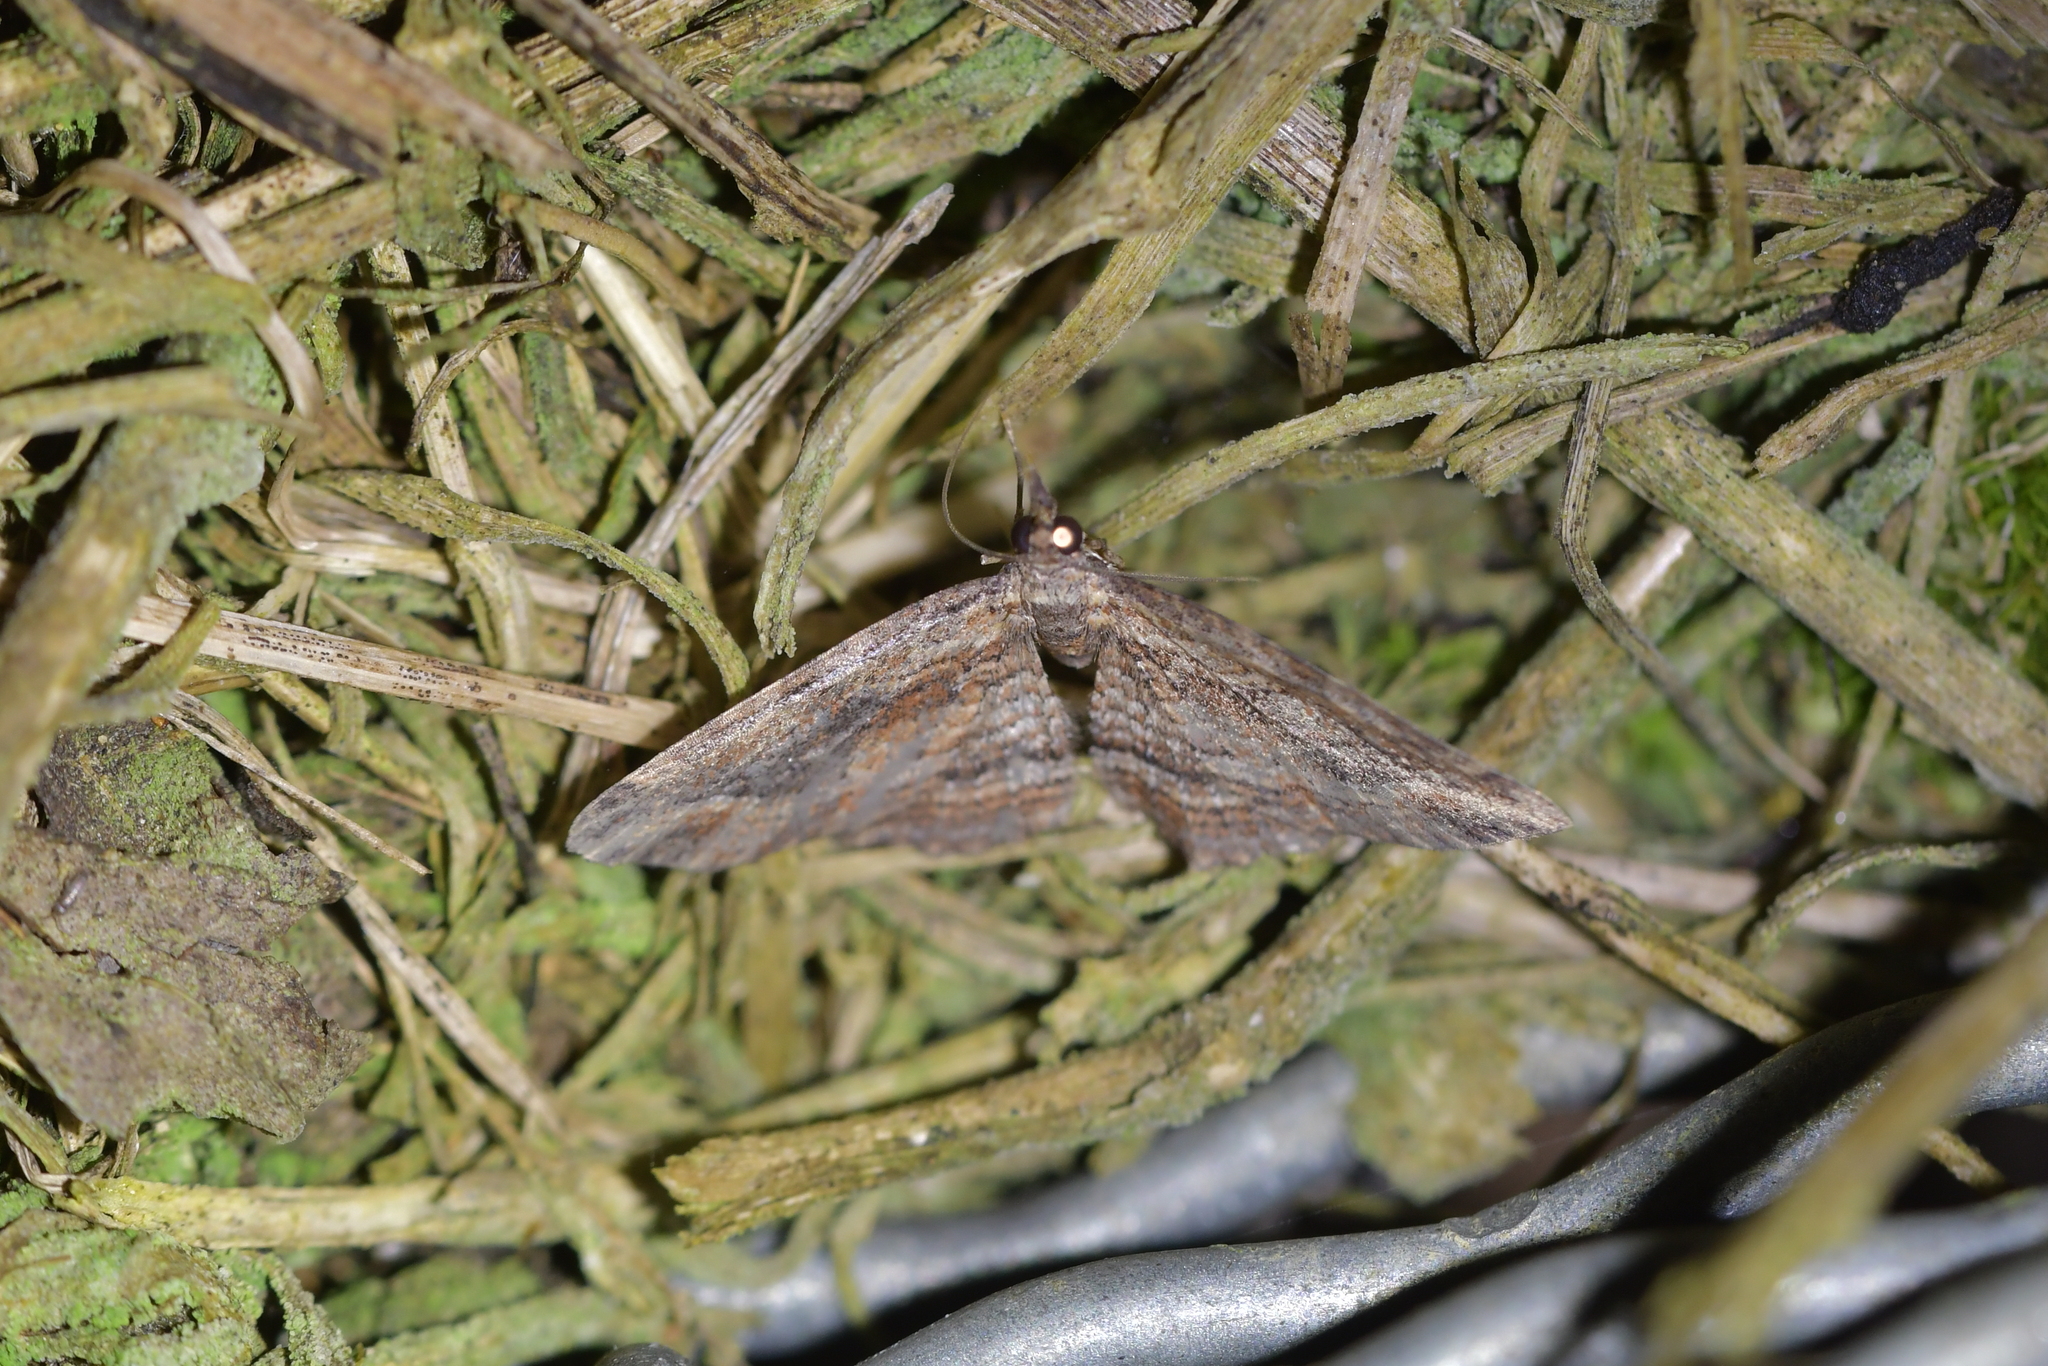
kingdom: Animalia
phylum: Arthropoda
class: Insecta
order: Lepidoptera
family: Geometridae
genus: Chloroclystis
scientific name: Chloroclystis filata
